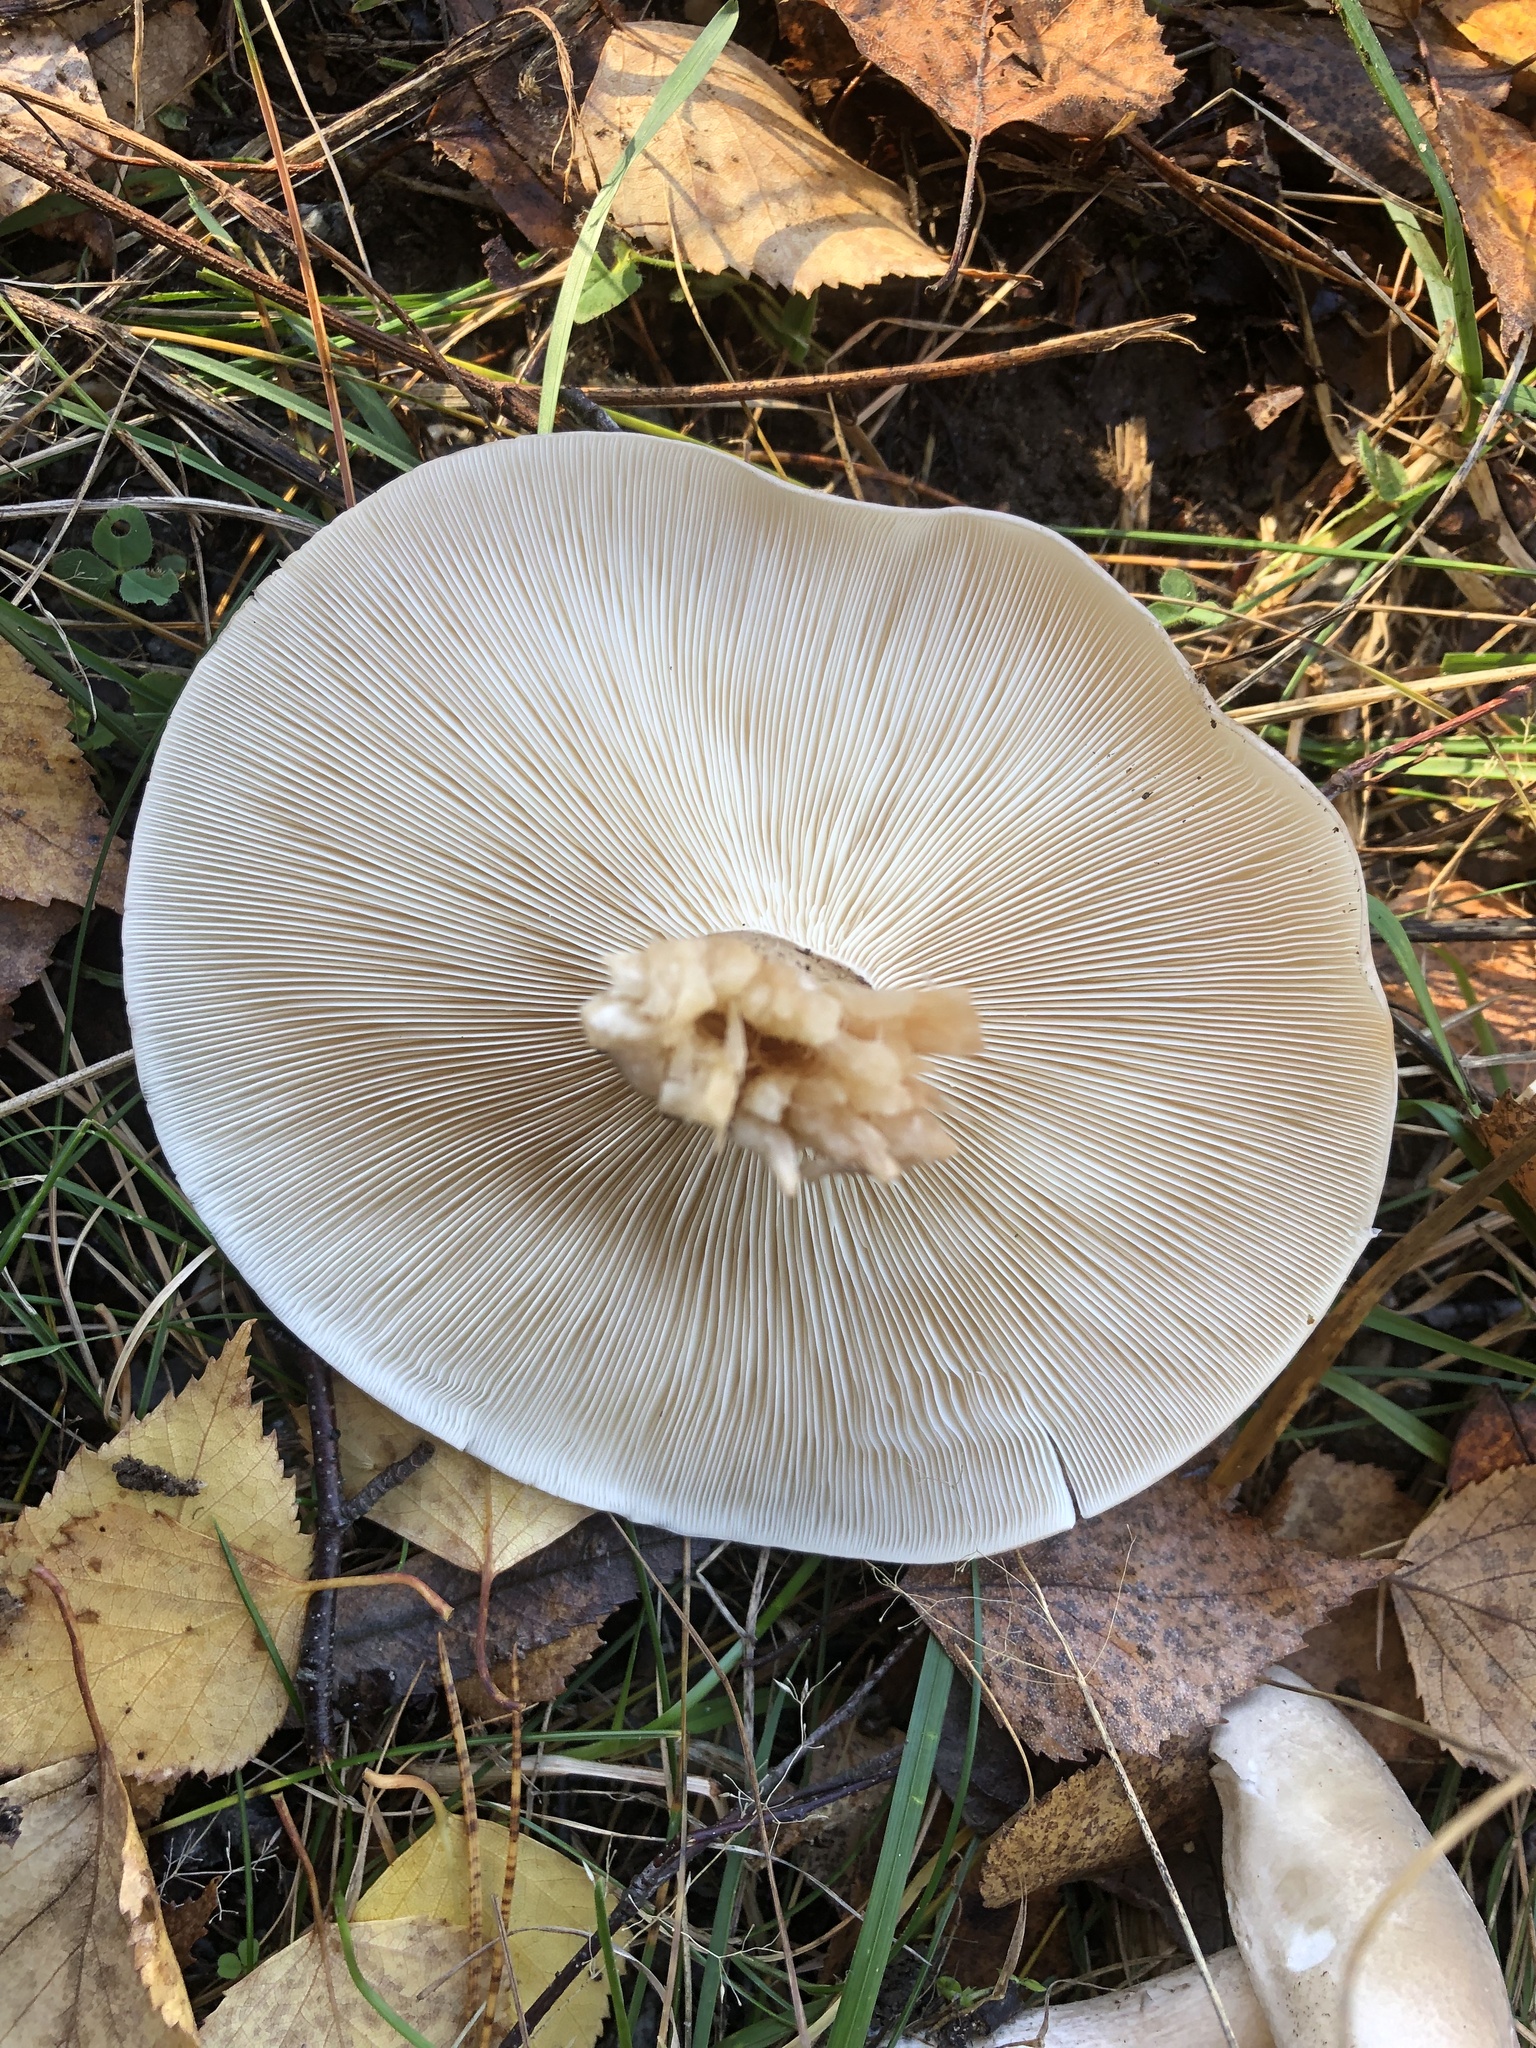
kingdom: Fungi
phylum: Basidiomycota
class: Agaricomycetes
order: Agaricales
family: Tricholomataceae
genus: Clitocybe
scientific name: Clitocybe nebularis
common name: Clouded agaric
